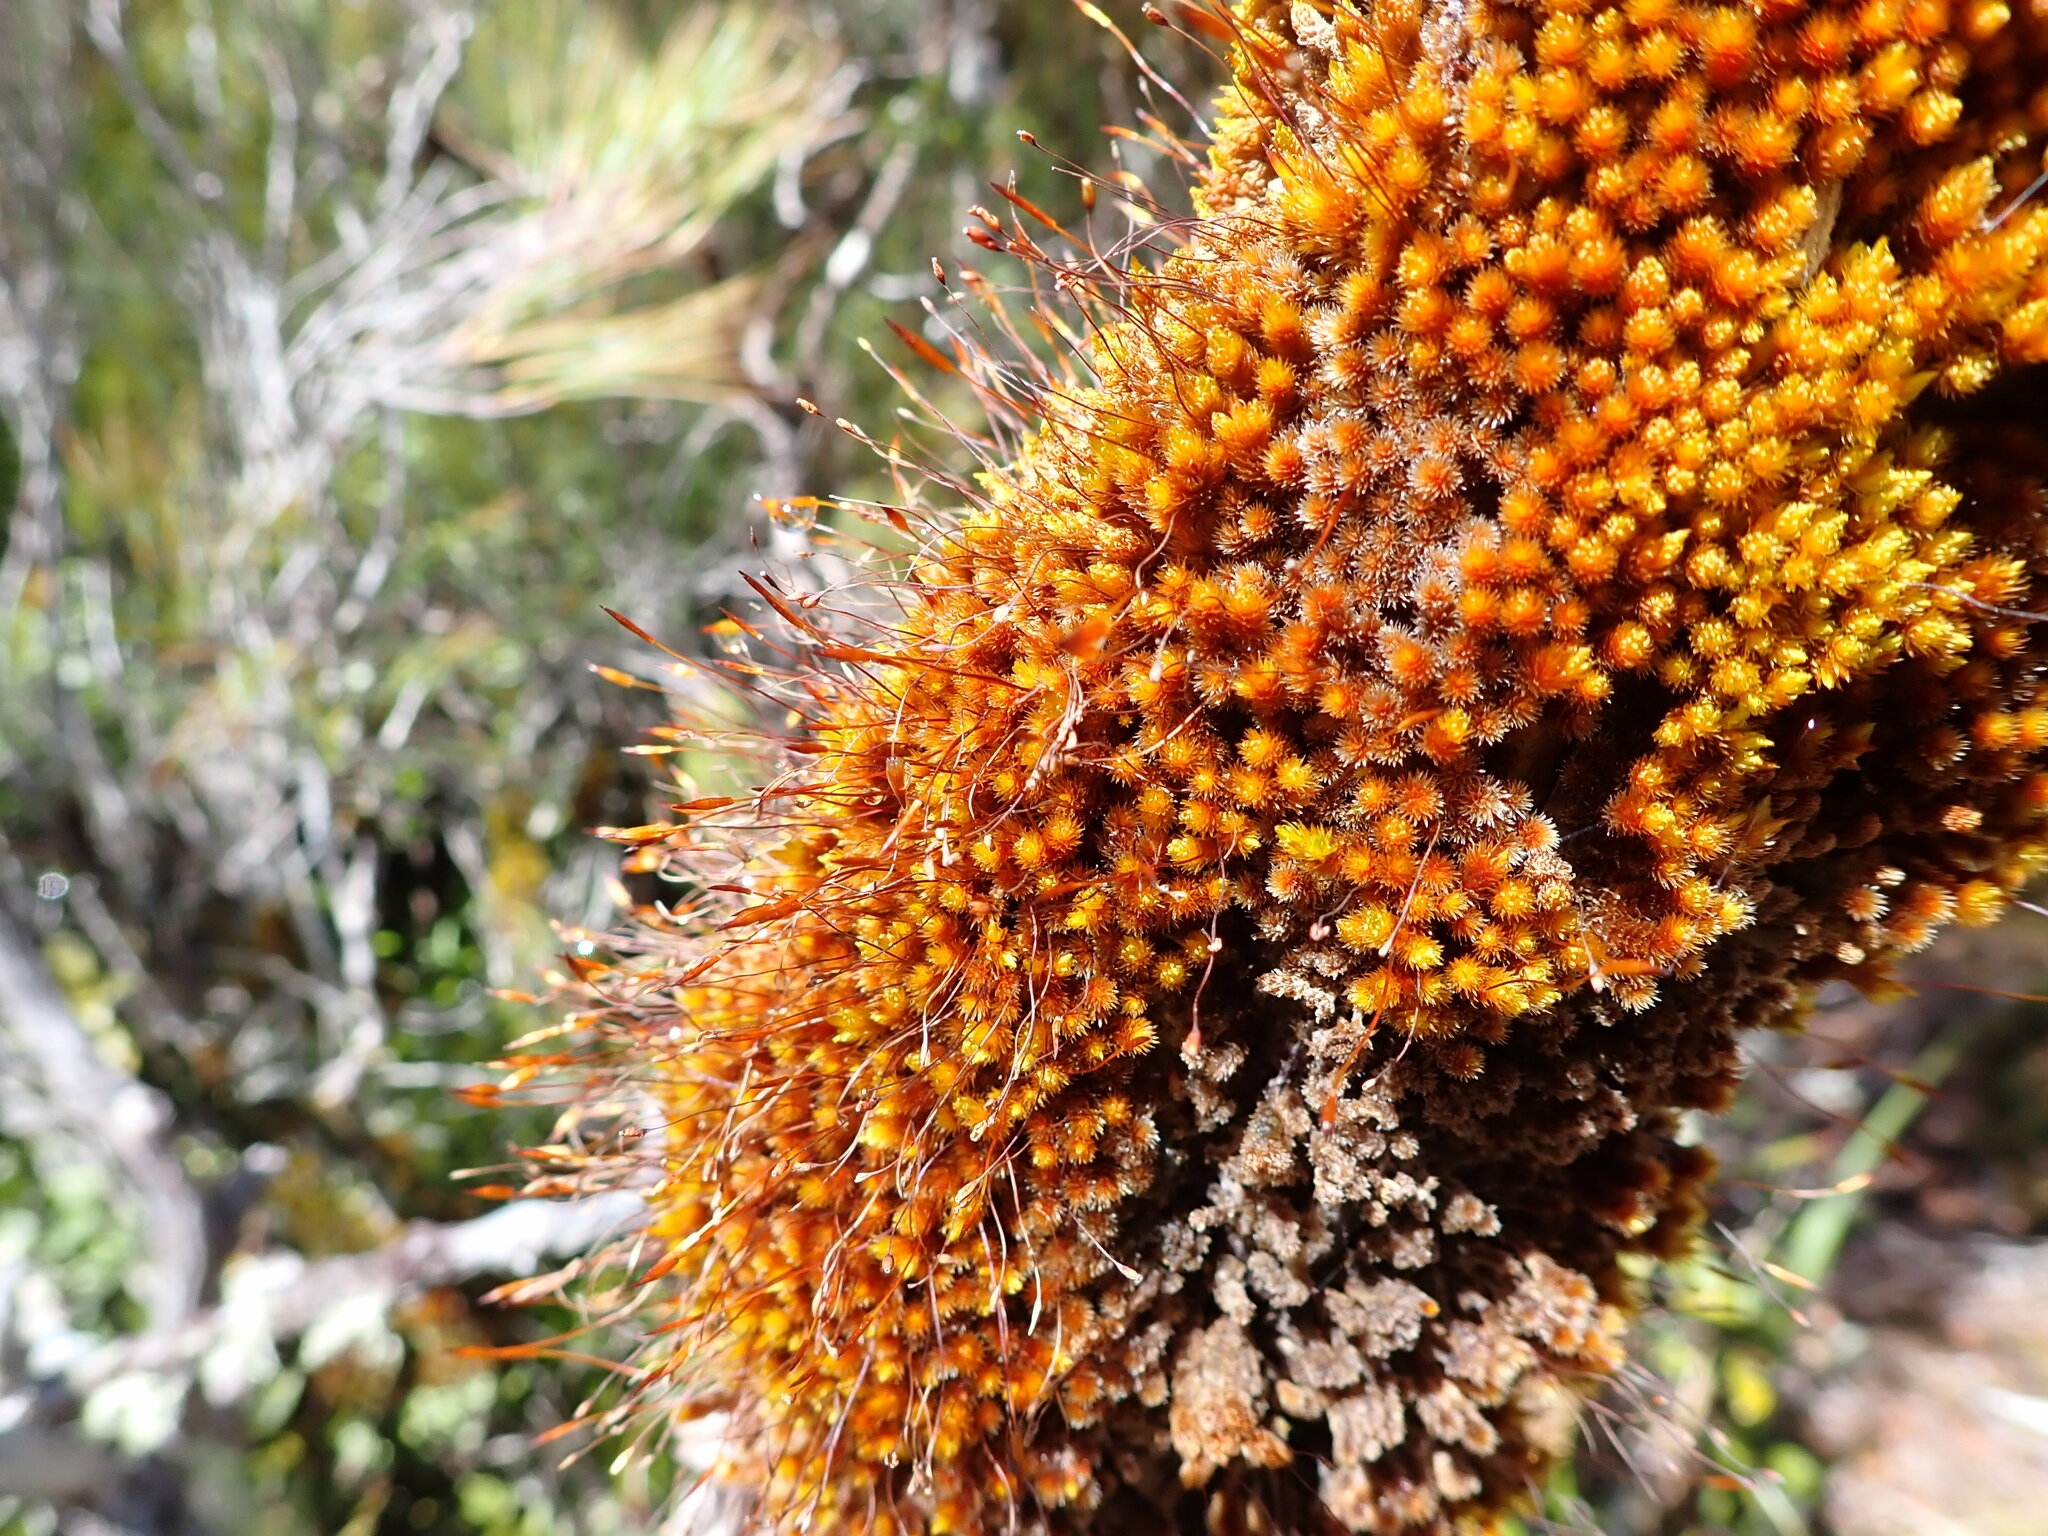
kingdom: Plantae
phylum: Bryophyta
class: Bryopsida
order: Orthotrichales
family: Orthotrichaceae
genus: Macromitrium
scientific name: Macromitrium longipes
